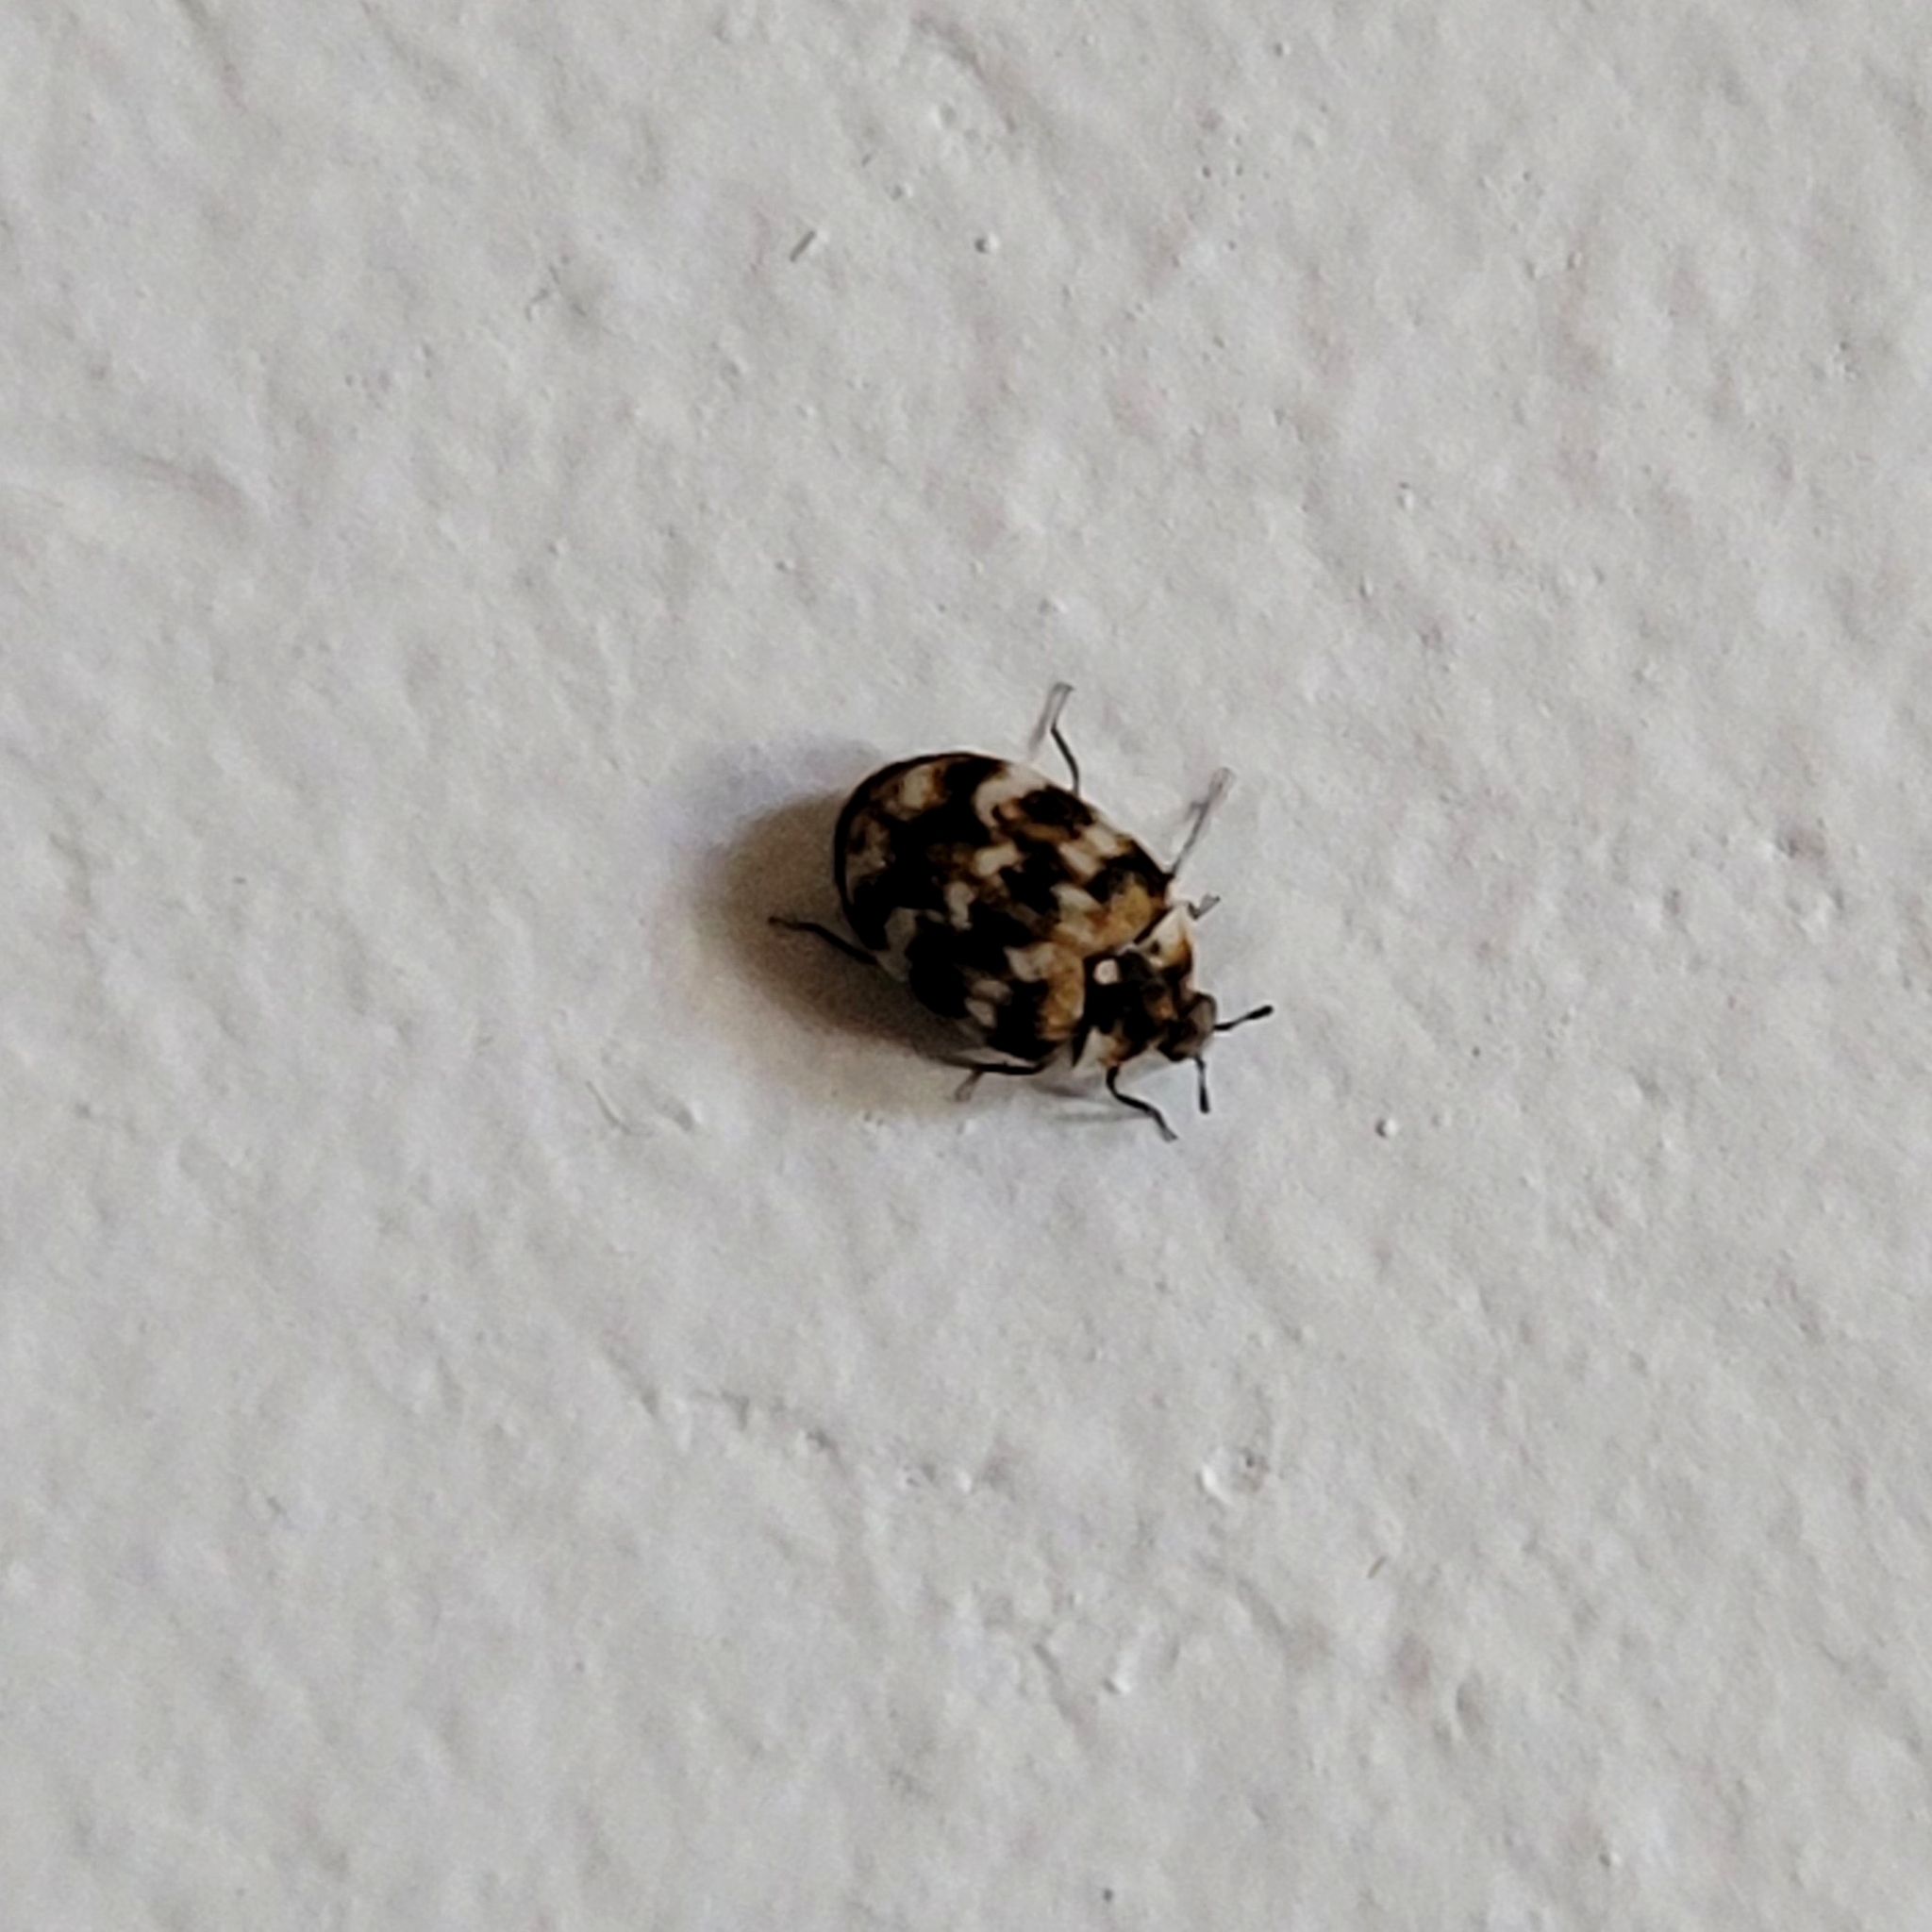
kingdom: Animalia
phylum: Arthropoda
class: Insecta
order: Coleoptera
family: Dermestidae
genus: Anthrenus
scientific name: Anthrenus verbasci
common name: Varied carpet beetle
